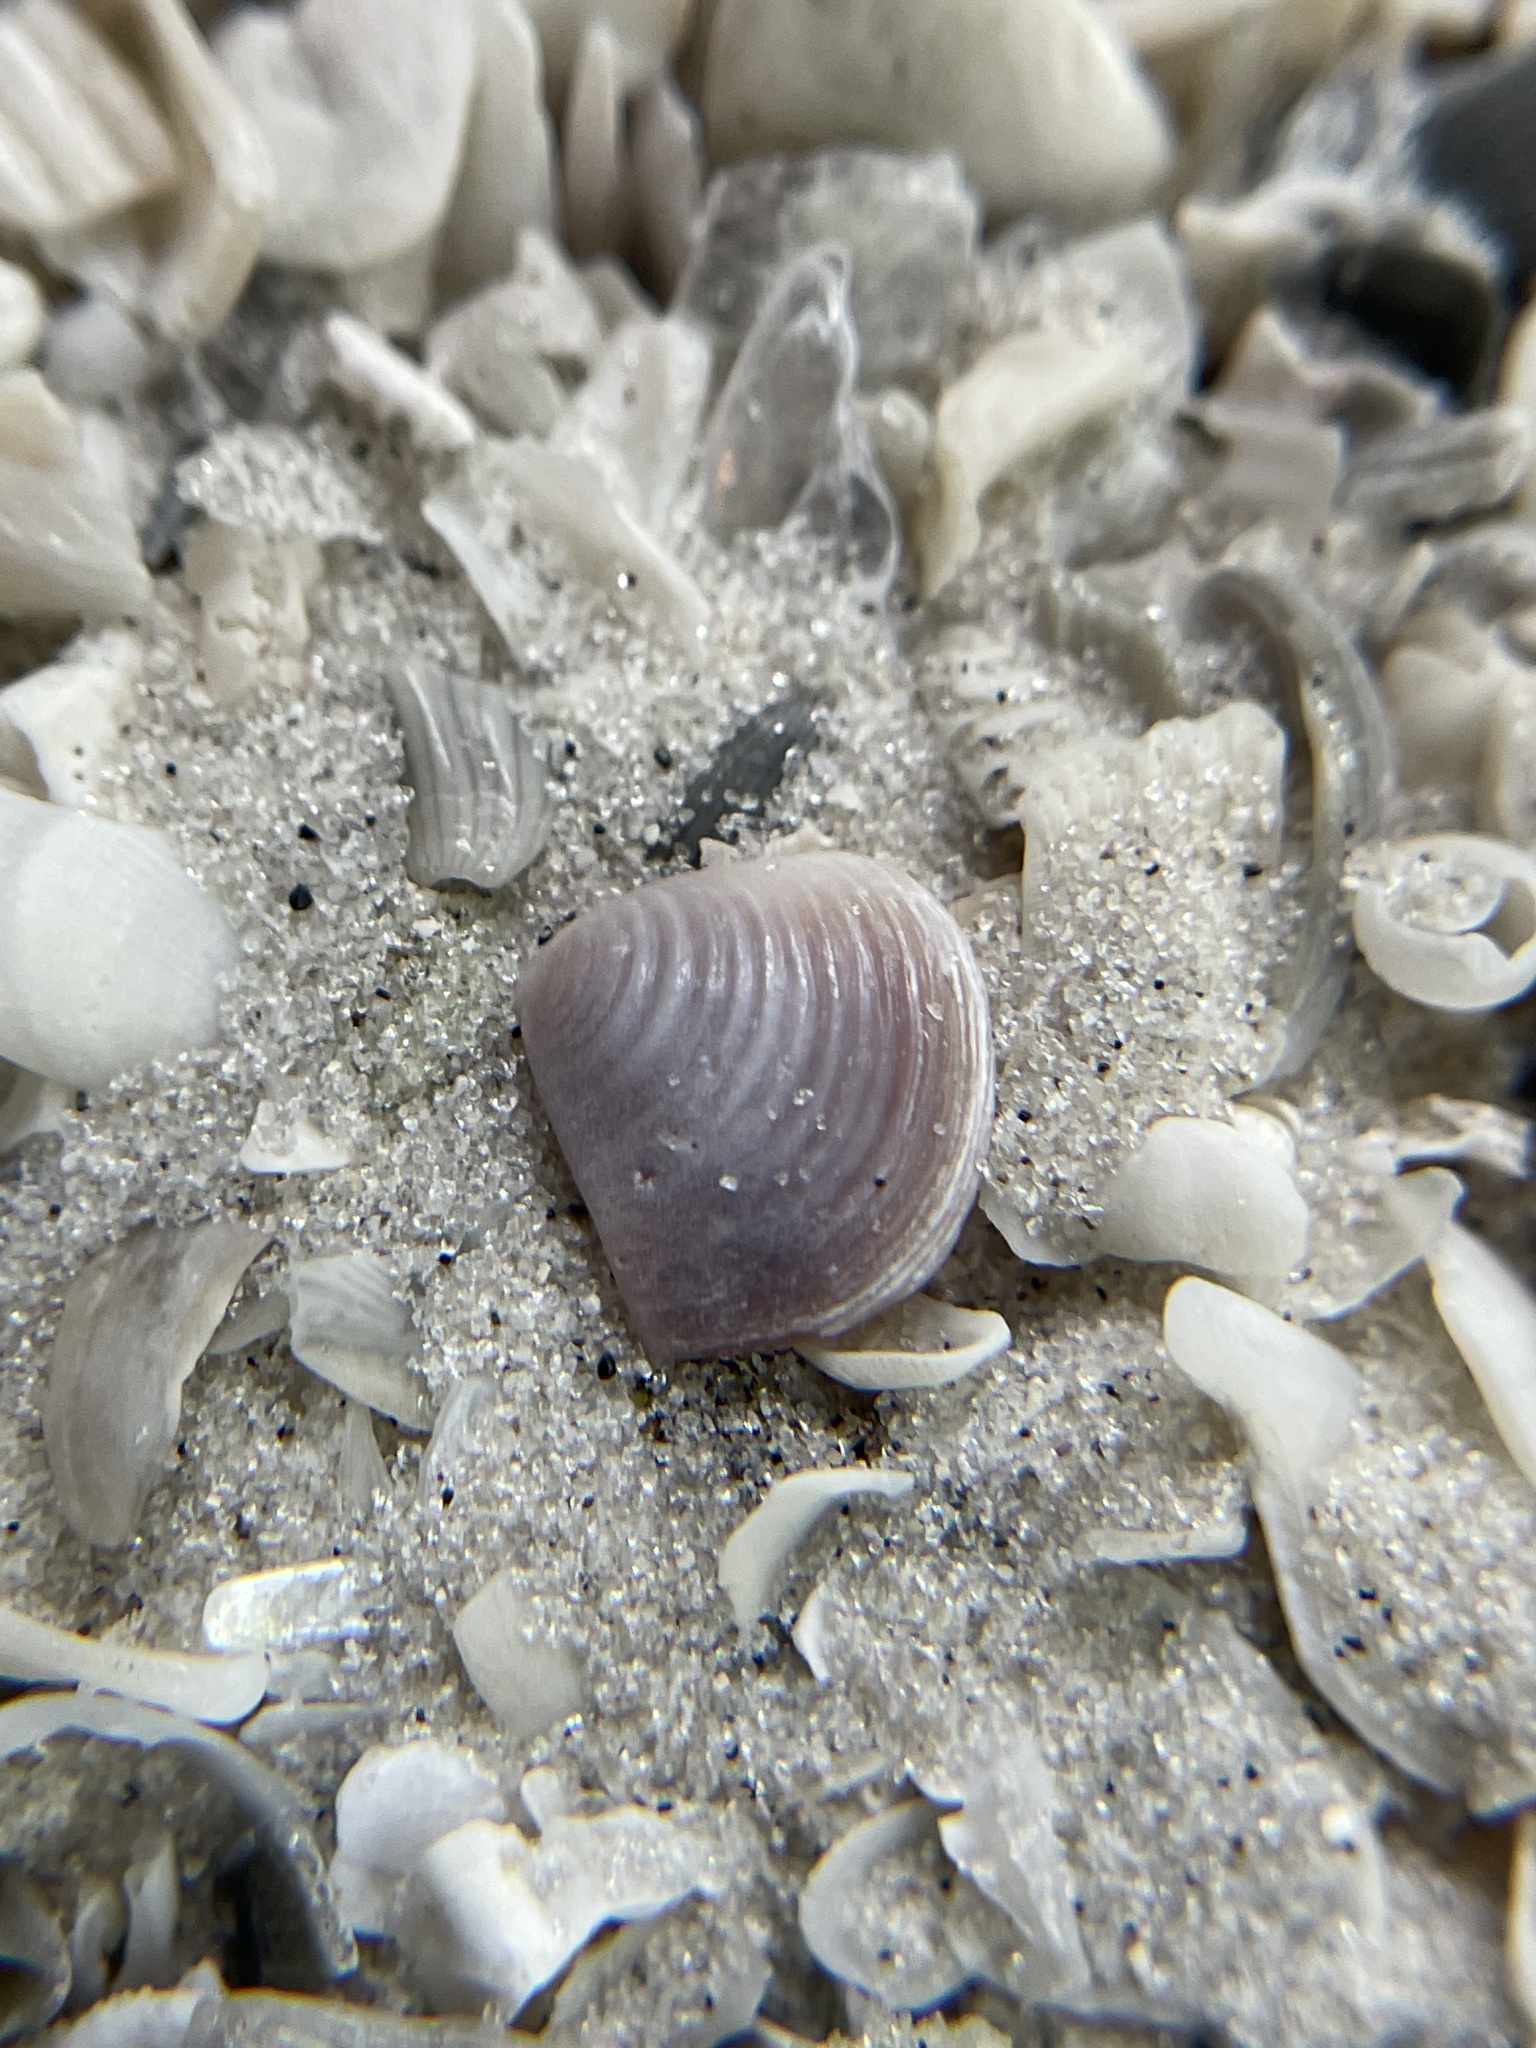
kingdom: Animalia
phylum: Mollusca
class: Bivalvia
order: Carditida
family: Crassatellidae
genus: Crassinella
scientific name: Crassinella lunulata
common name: Lunate crassinella
